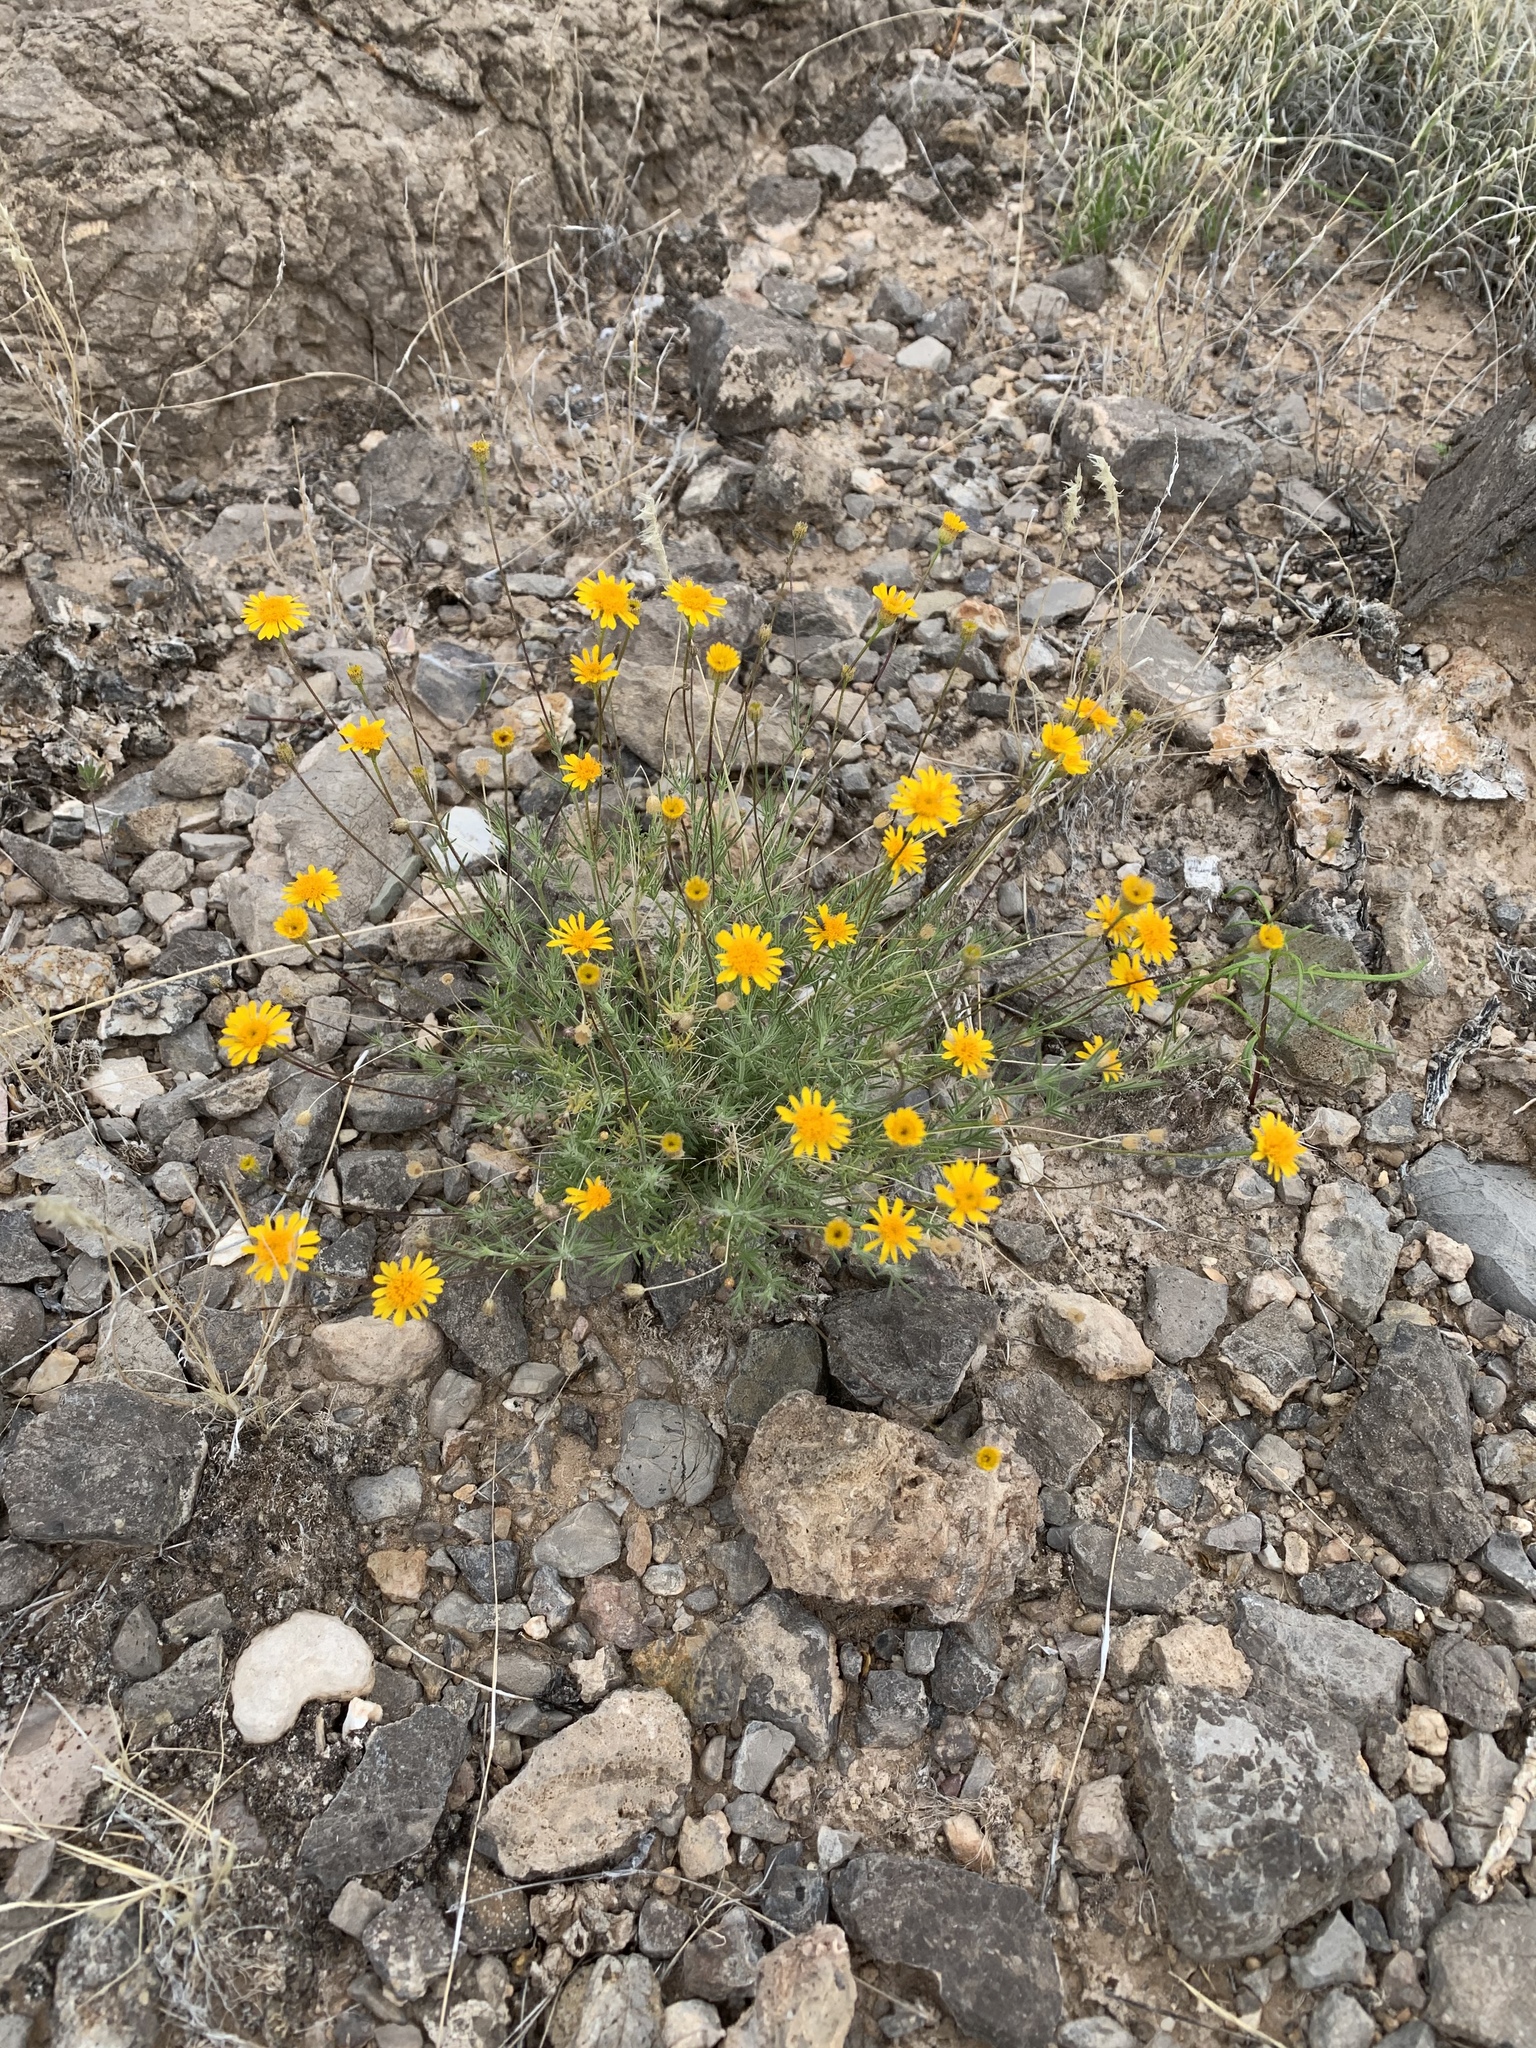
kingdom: Plantae
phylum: Tracheophyta
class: Magnoliopsida
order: Asterales
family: Asteraceae
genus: Thymophylla
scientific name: Thymophylla pentachaeta
